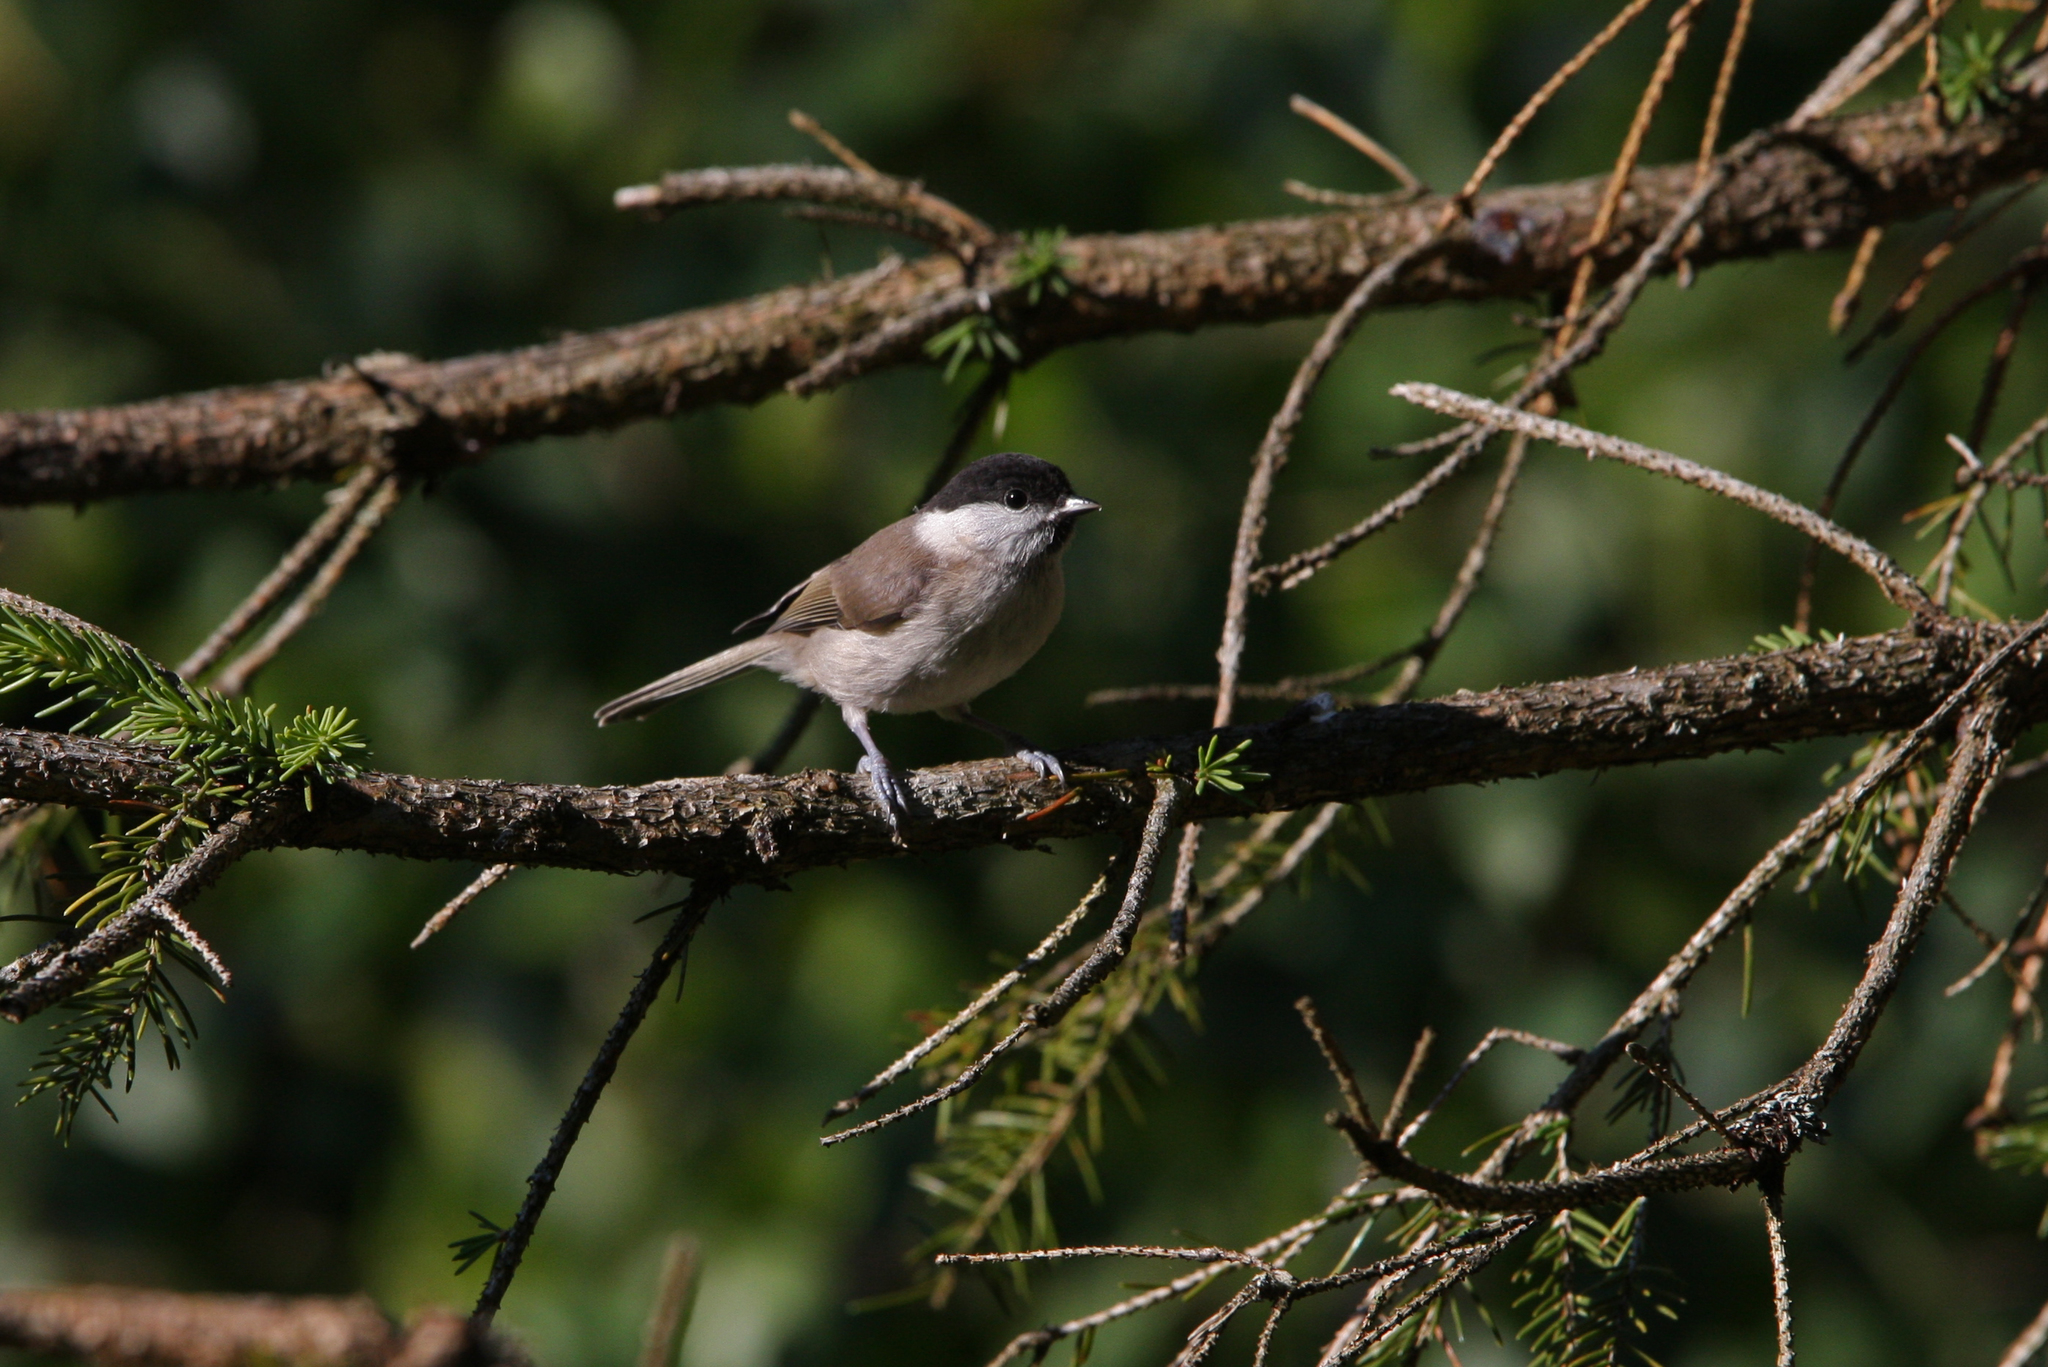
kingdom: Animalia
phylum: Chordata
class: Aves
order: Passeriformes
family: Paridae
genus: Poecile
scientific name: Poecile palustris
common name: Marsh tit
